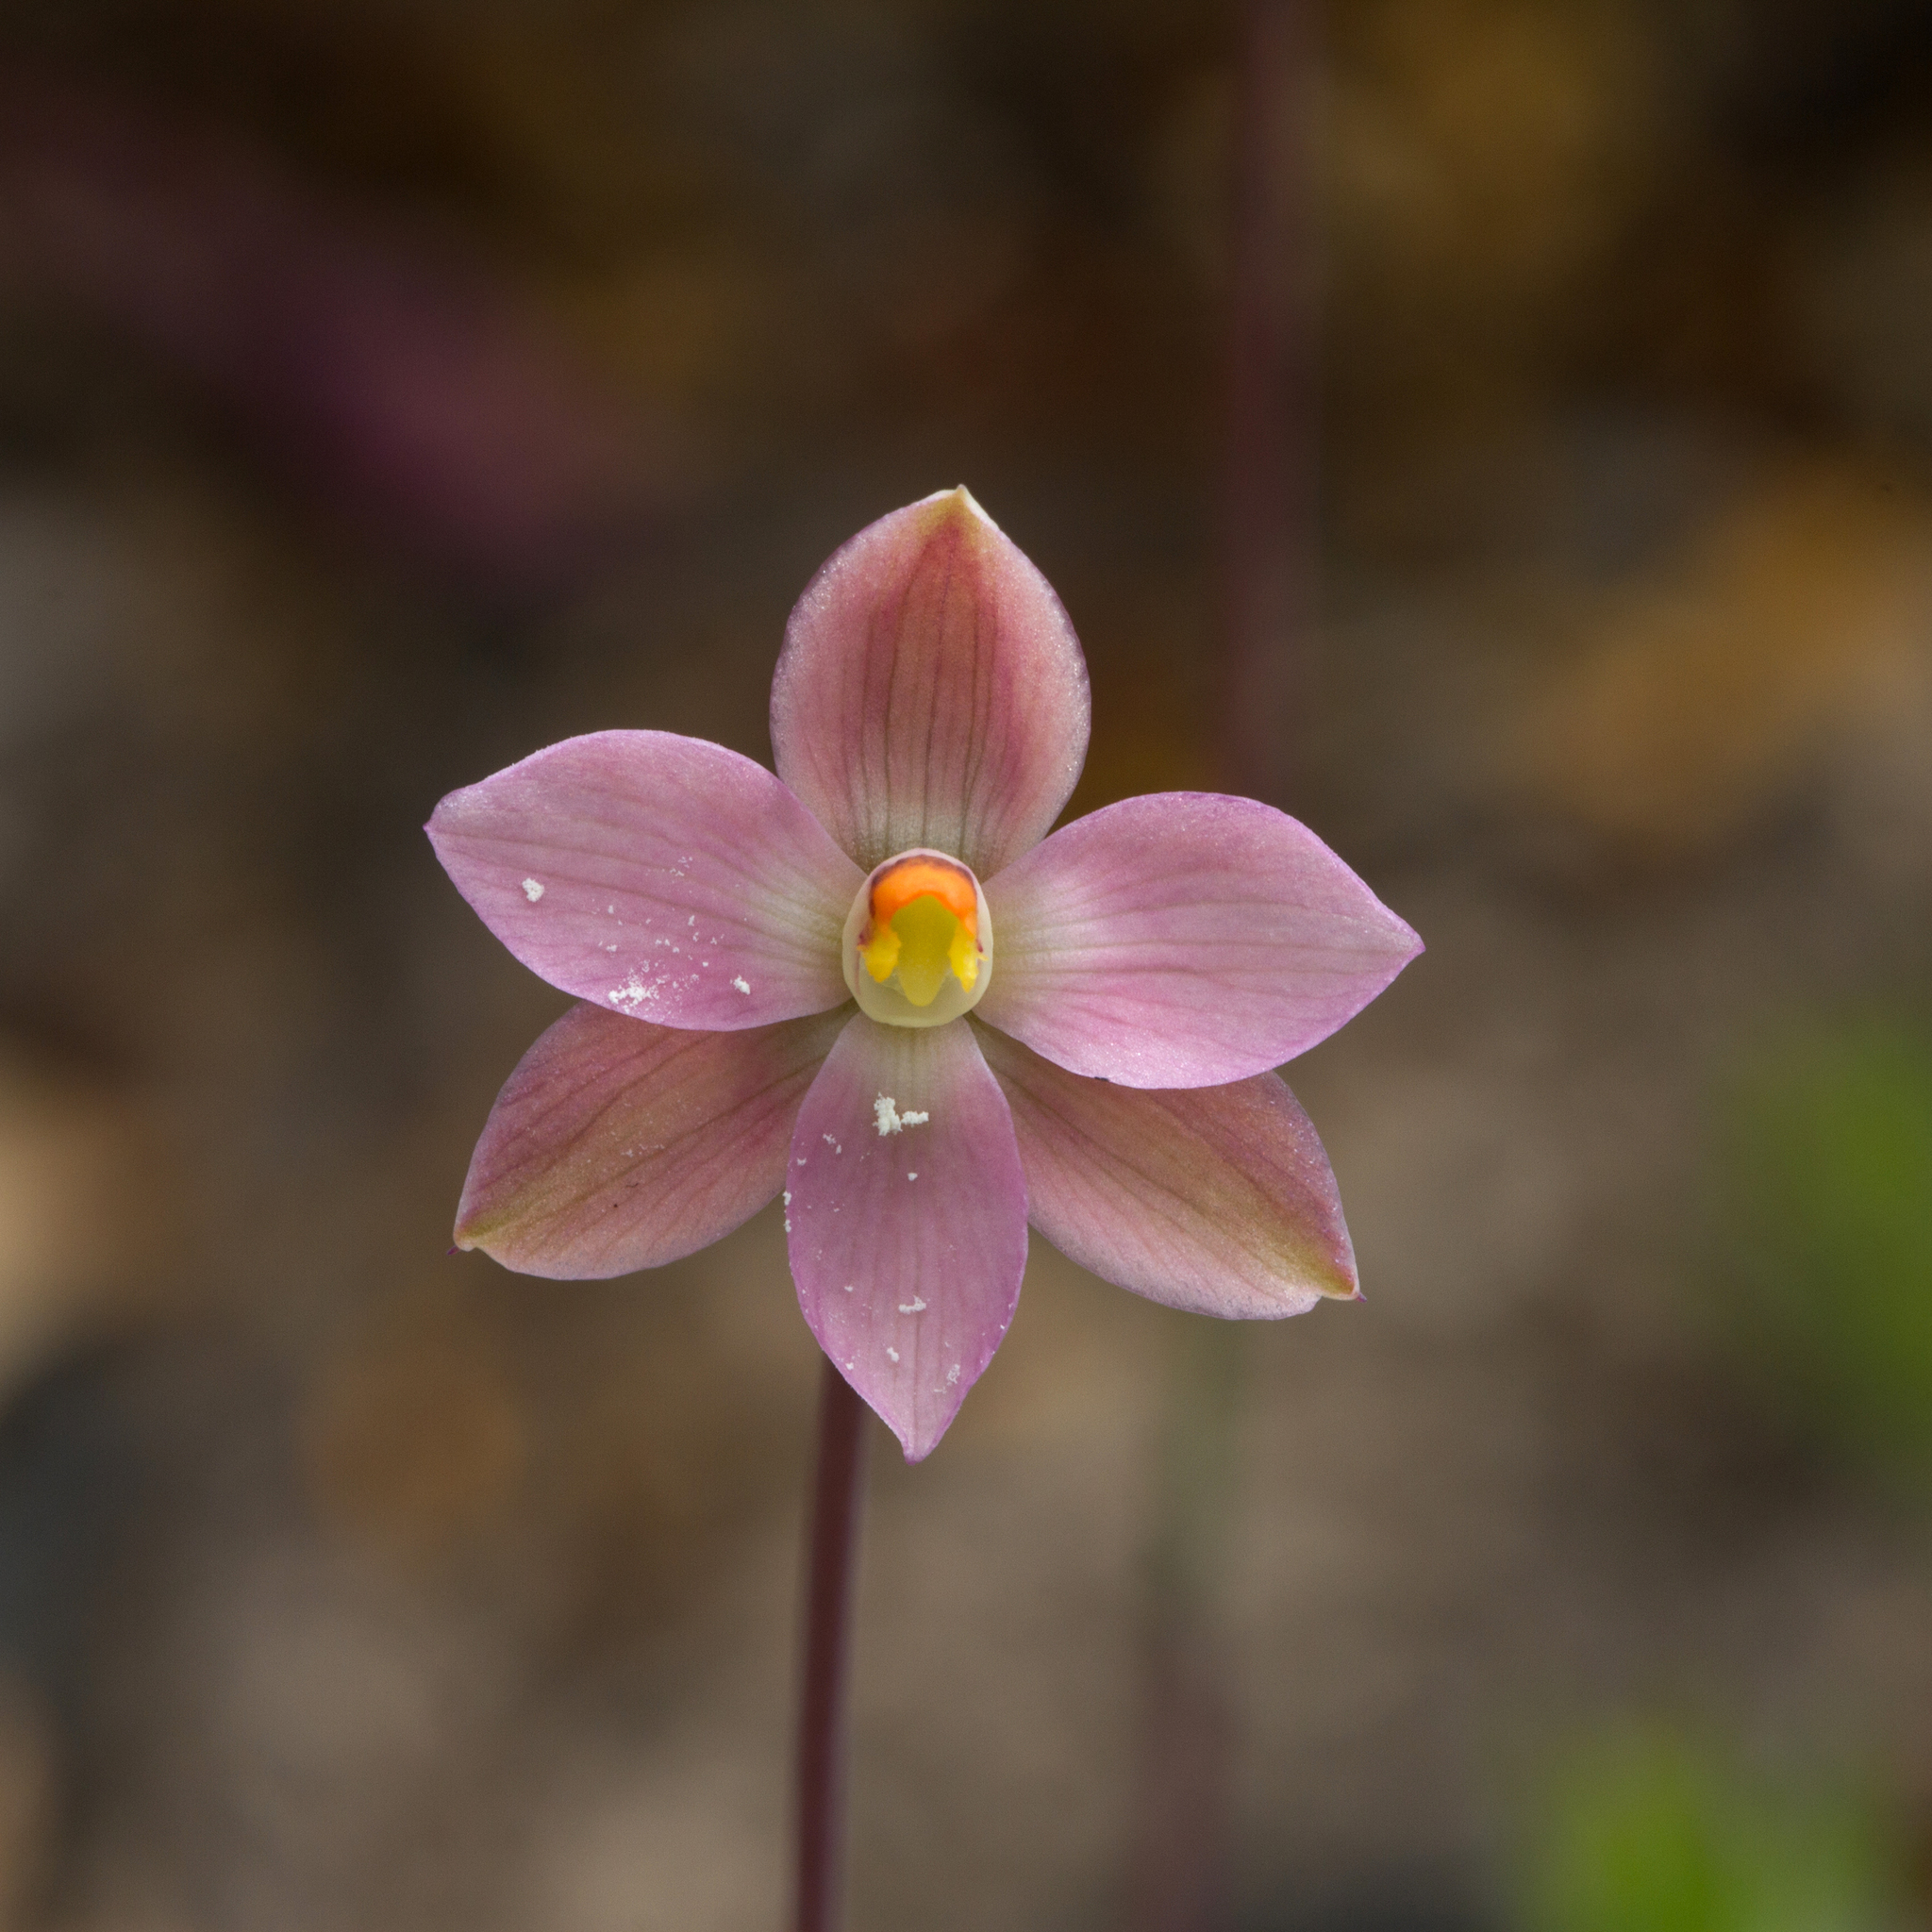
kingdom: Plantae
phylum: Tracheophyta
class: Liliopsida
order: Asparagales
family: Orchidaceae
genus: Thelymitra
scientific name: Thelymitra rubra
